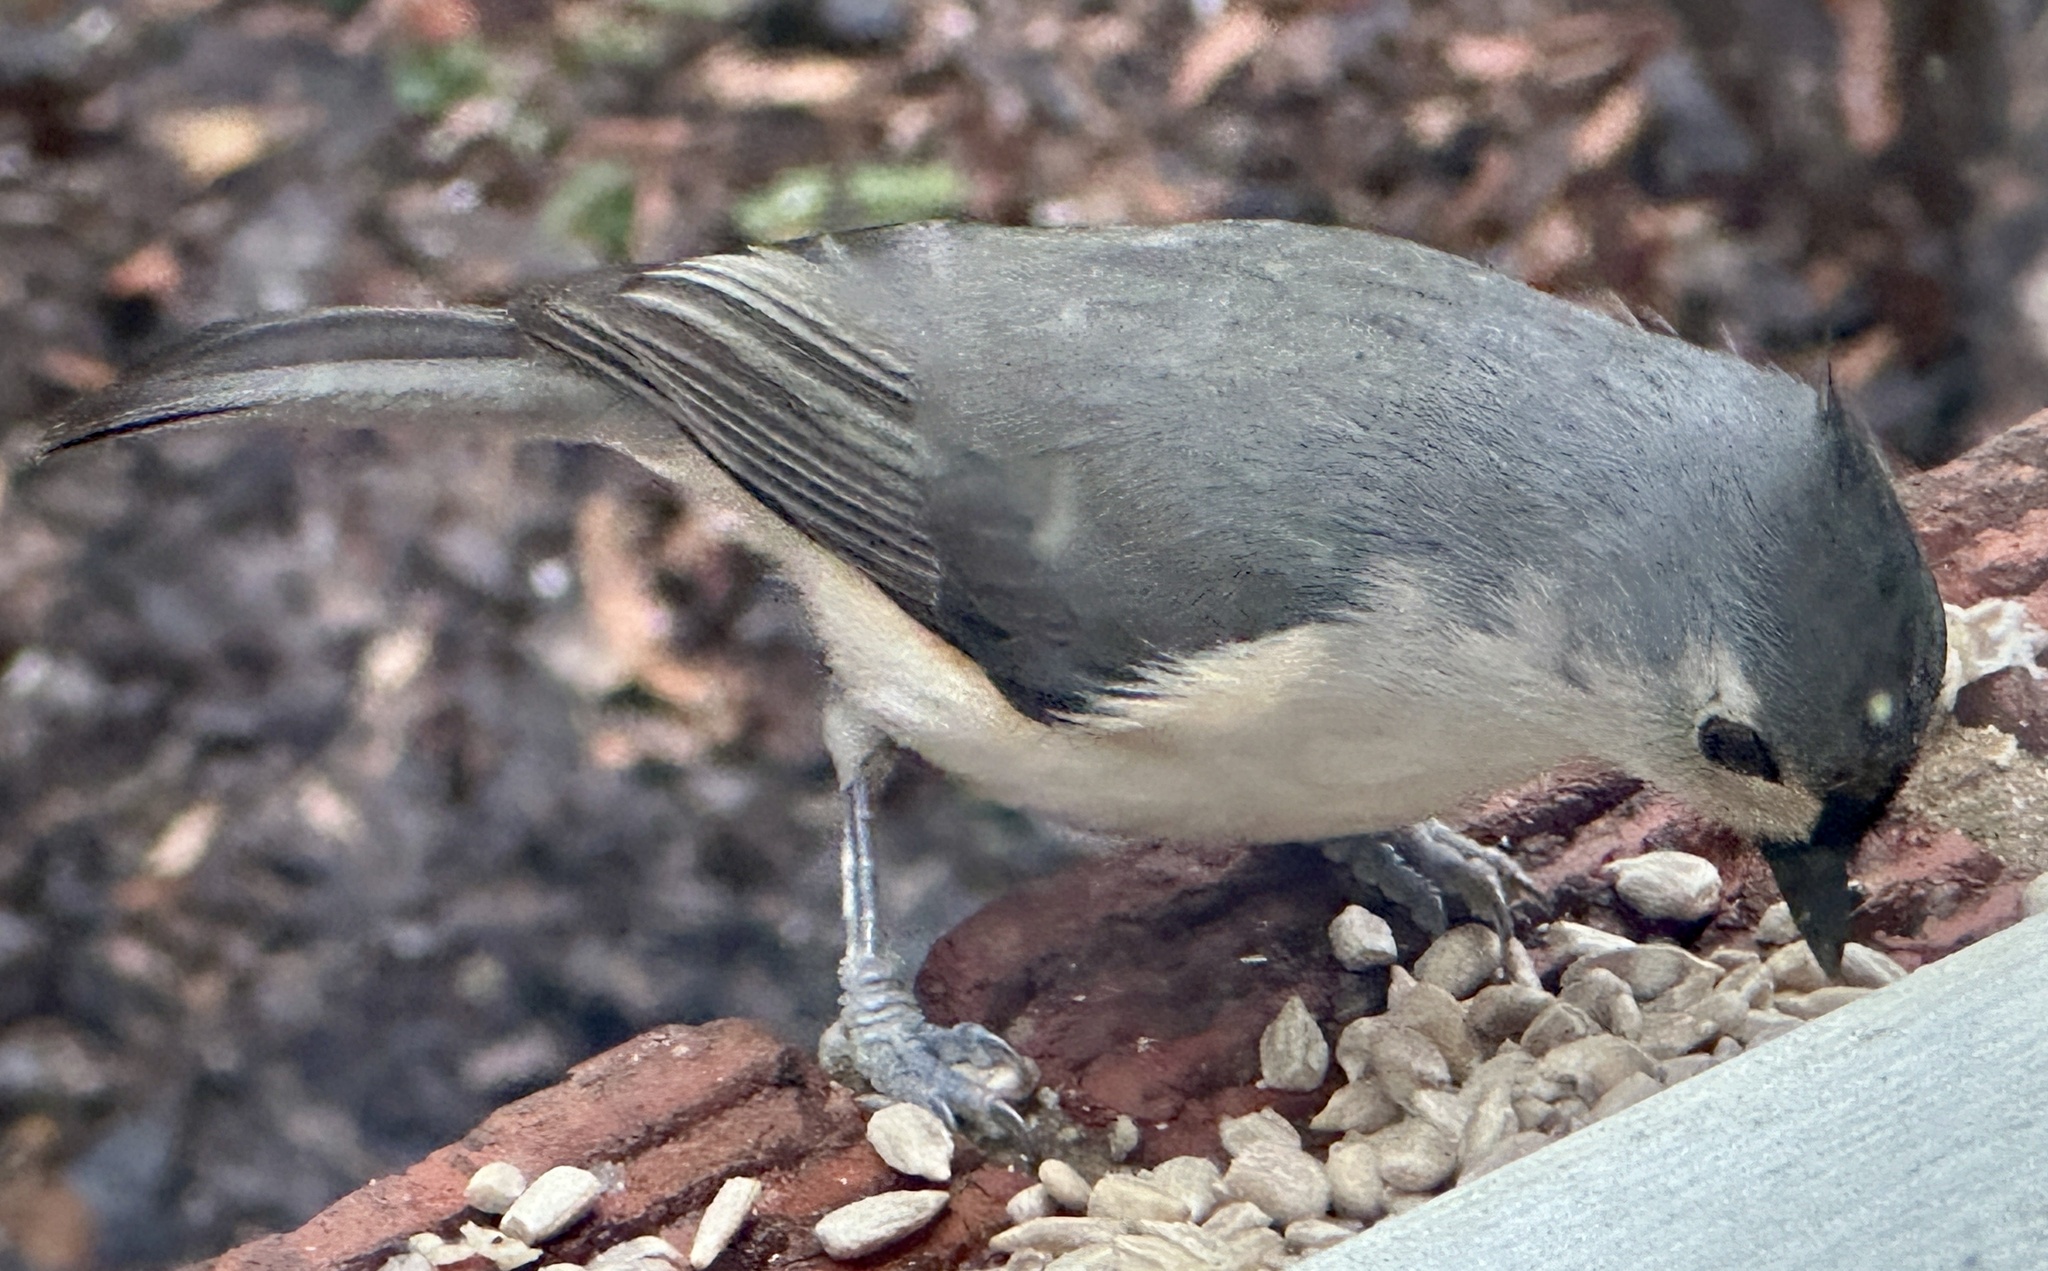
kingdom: Animalia
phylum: Chordata
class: Aves
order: Passeriformes
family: Paridae
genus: Baeolophus
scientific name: Baeolophus bicolor
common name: Tufted titmouse
